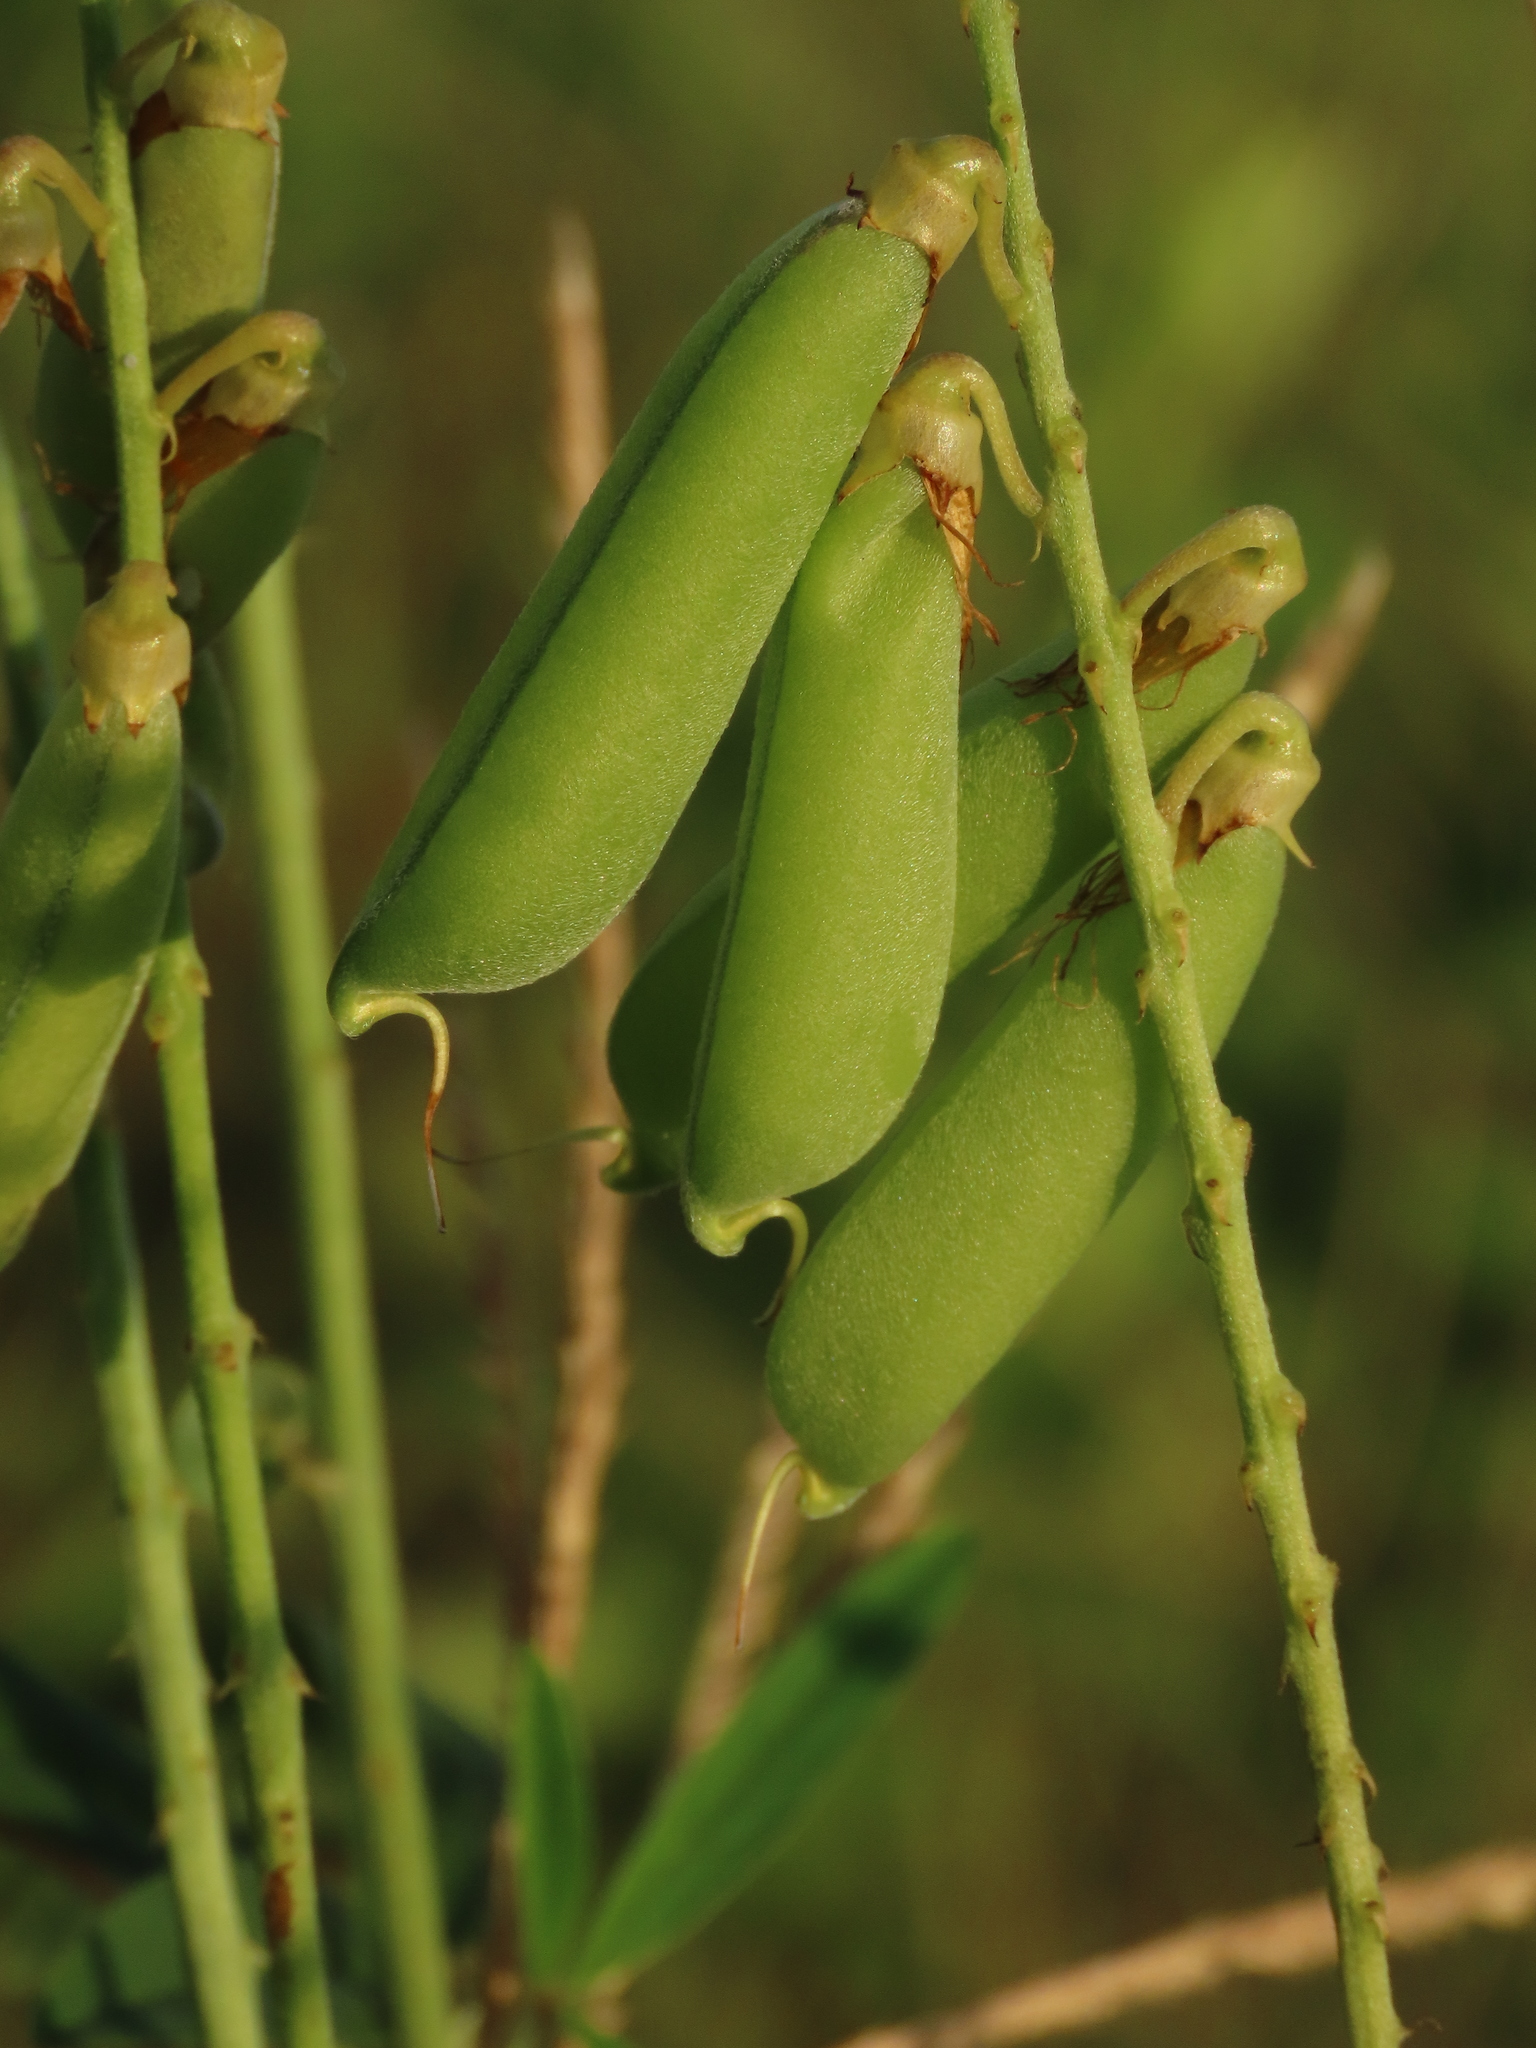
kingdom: Plantae
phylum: Tracheophyta
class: Magnoliopsida
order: Fabales
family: Fabaceae
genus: Crotalaria
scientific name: Crotalaria pallida
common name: Smooth rattlebox
